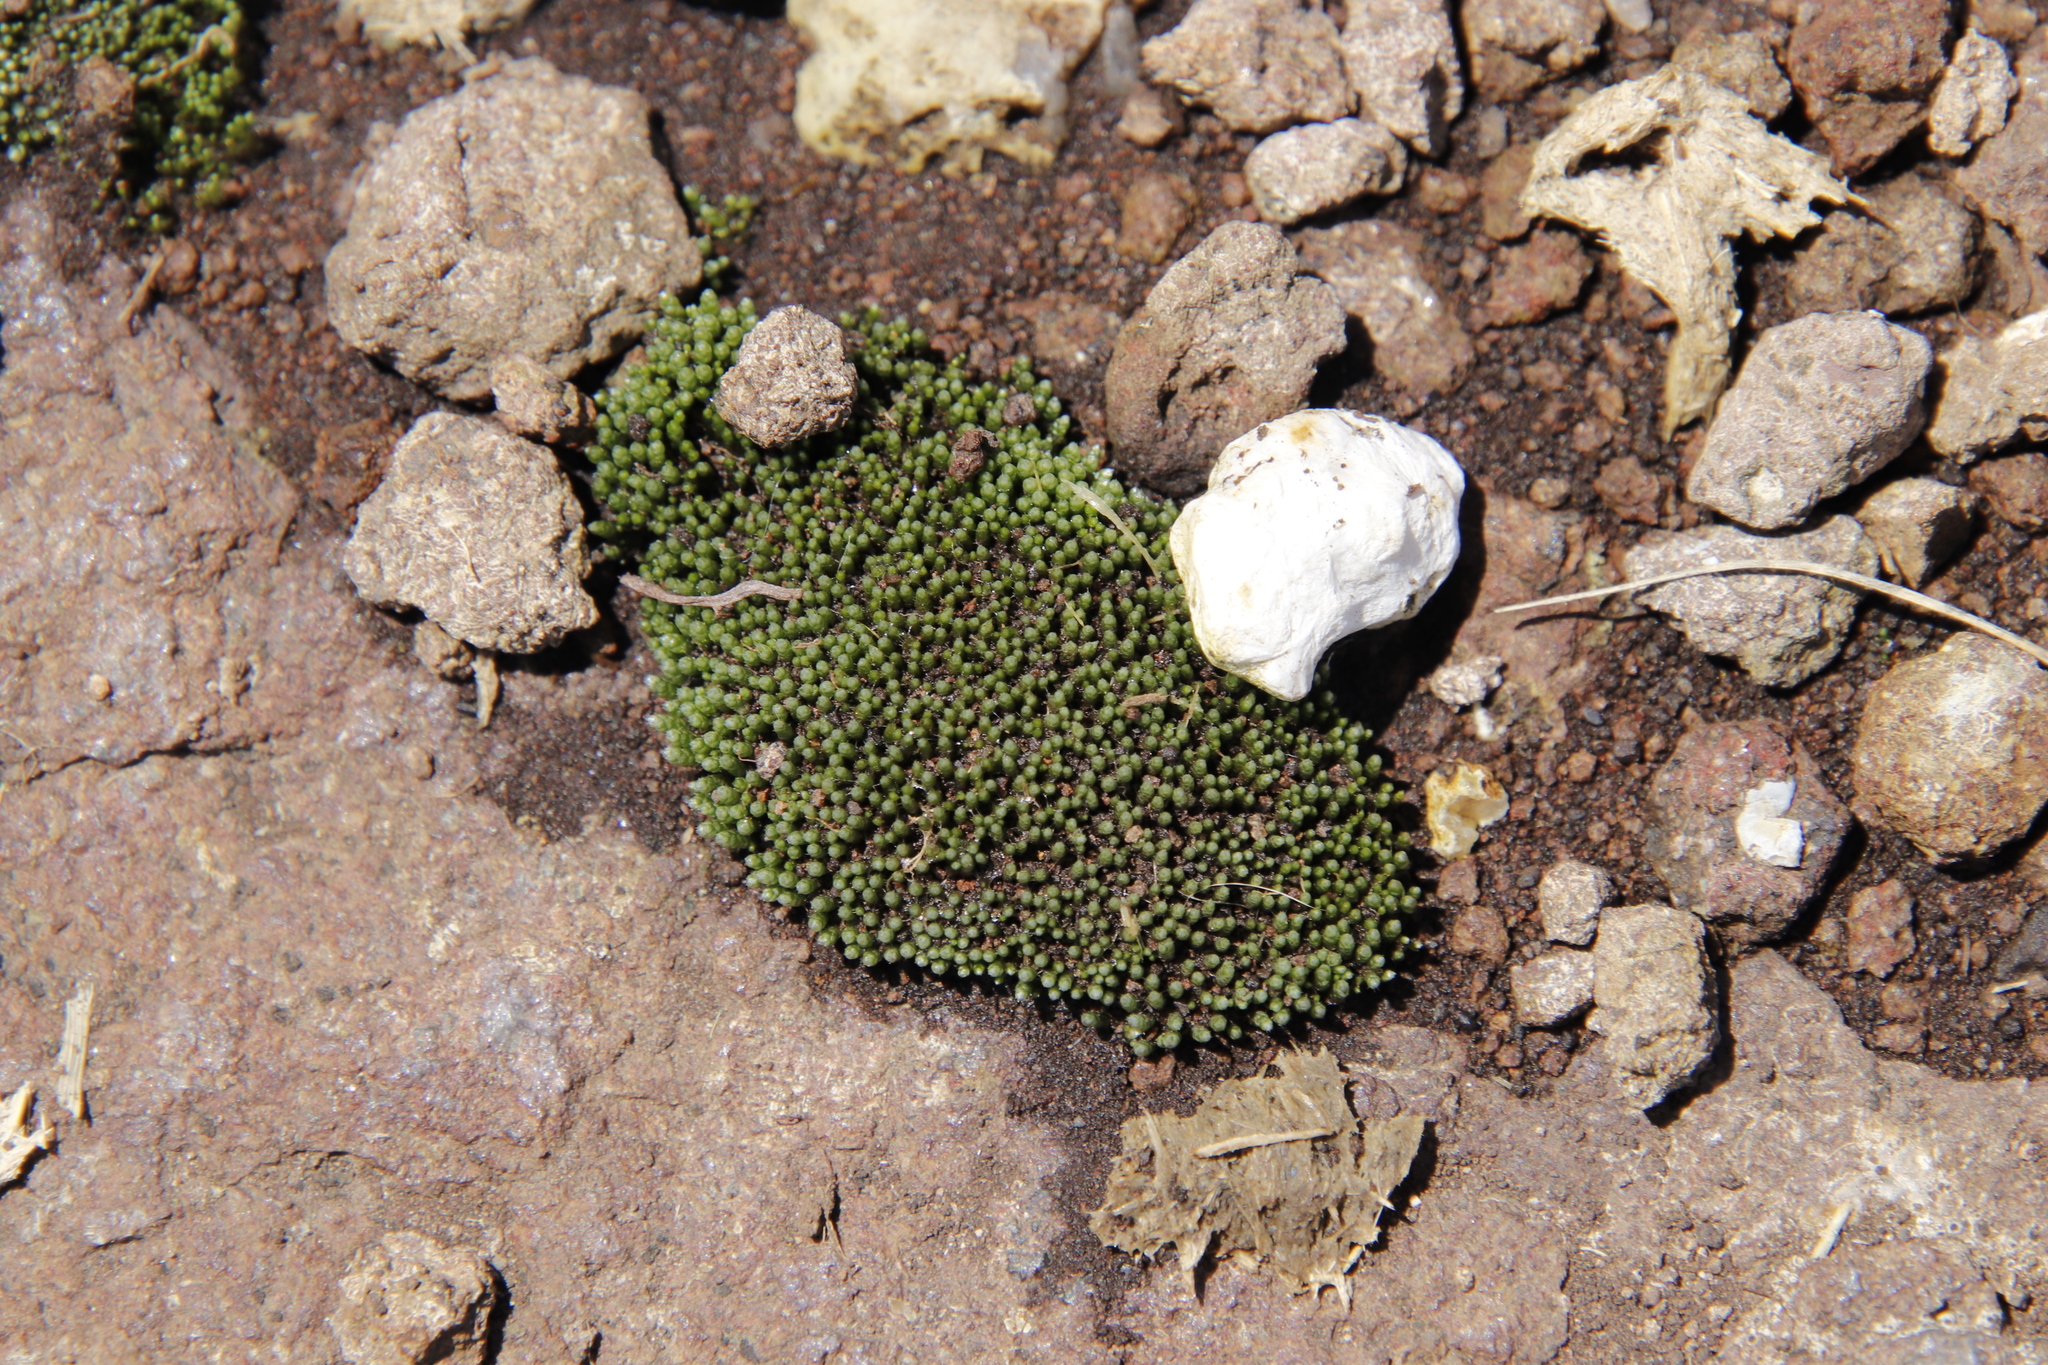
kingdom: Plantae
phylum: Bryophyta
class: Bryopsida
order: Bryales
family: Bryaceae
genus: Bryum
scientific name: Bryum argenteum
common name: Silver-moss
